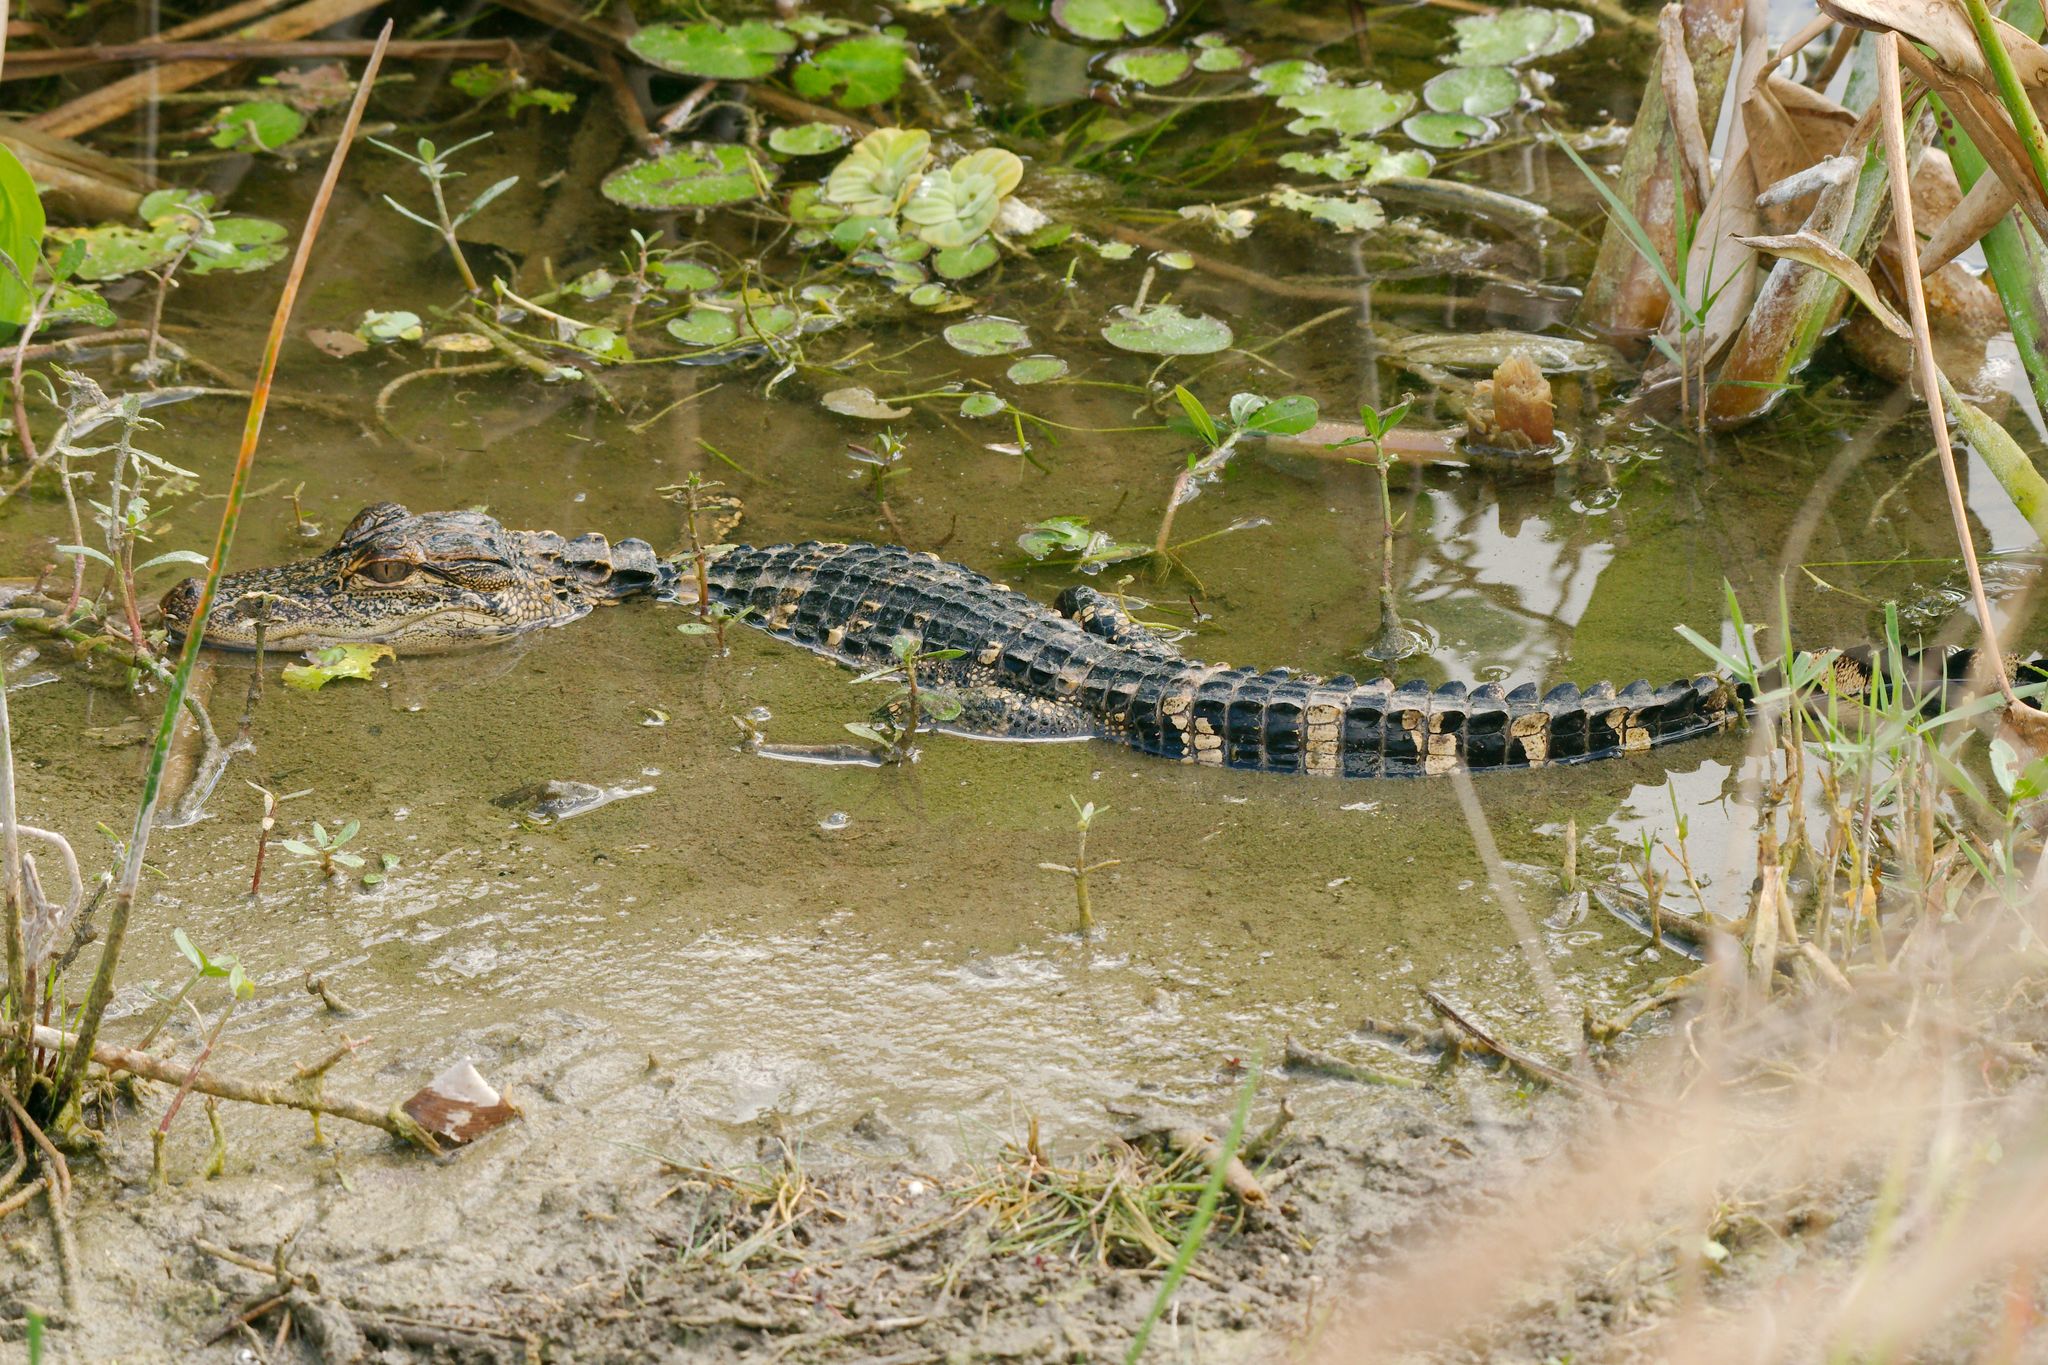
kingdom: Animalia
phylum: Chordata
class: Crocodylia
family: Alligatoridae
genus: Alligator
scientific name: Alligator mississippiensis
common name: American alligator
